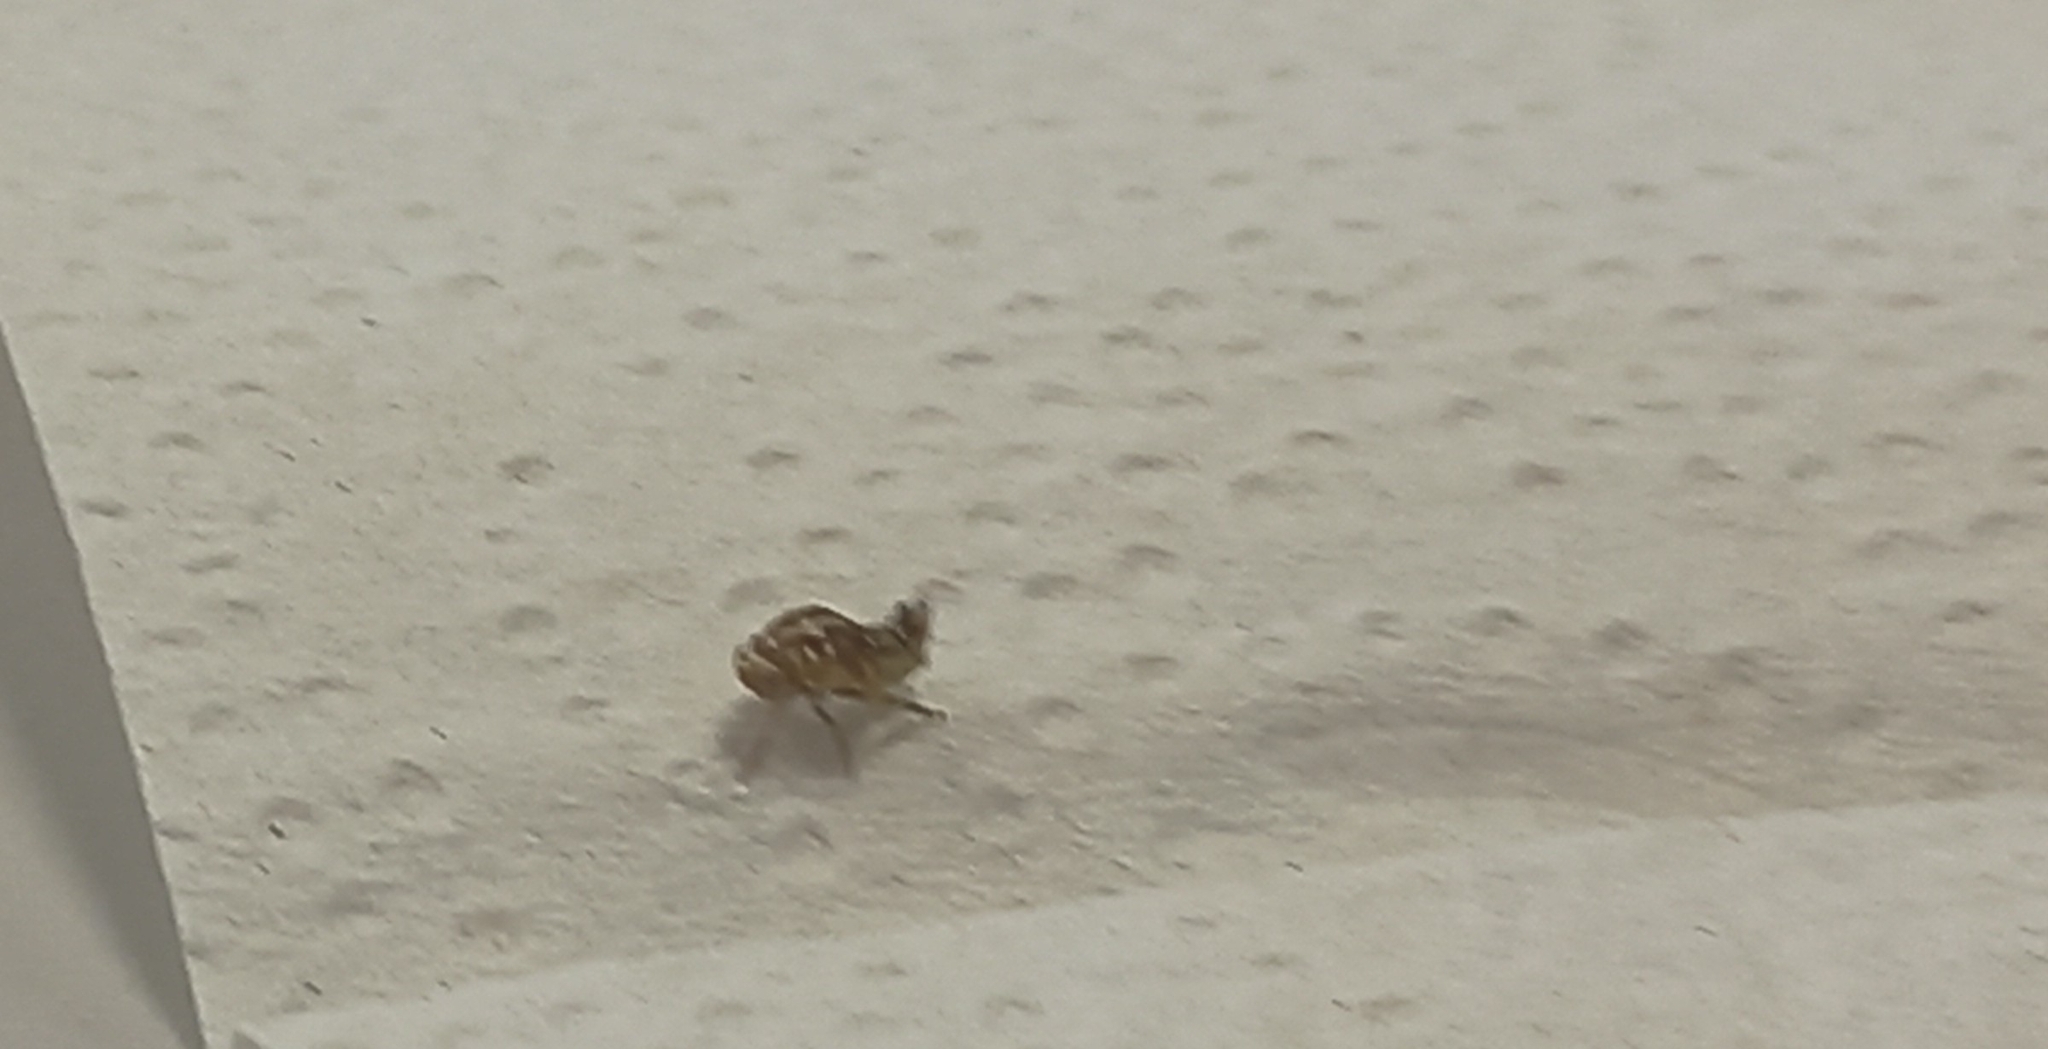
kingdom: Animalia
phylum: Arthropoda
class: Insecta
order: Hemiptera
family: Ricaniidae
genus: Scolypopa
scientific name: Scolypopa australis
